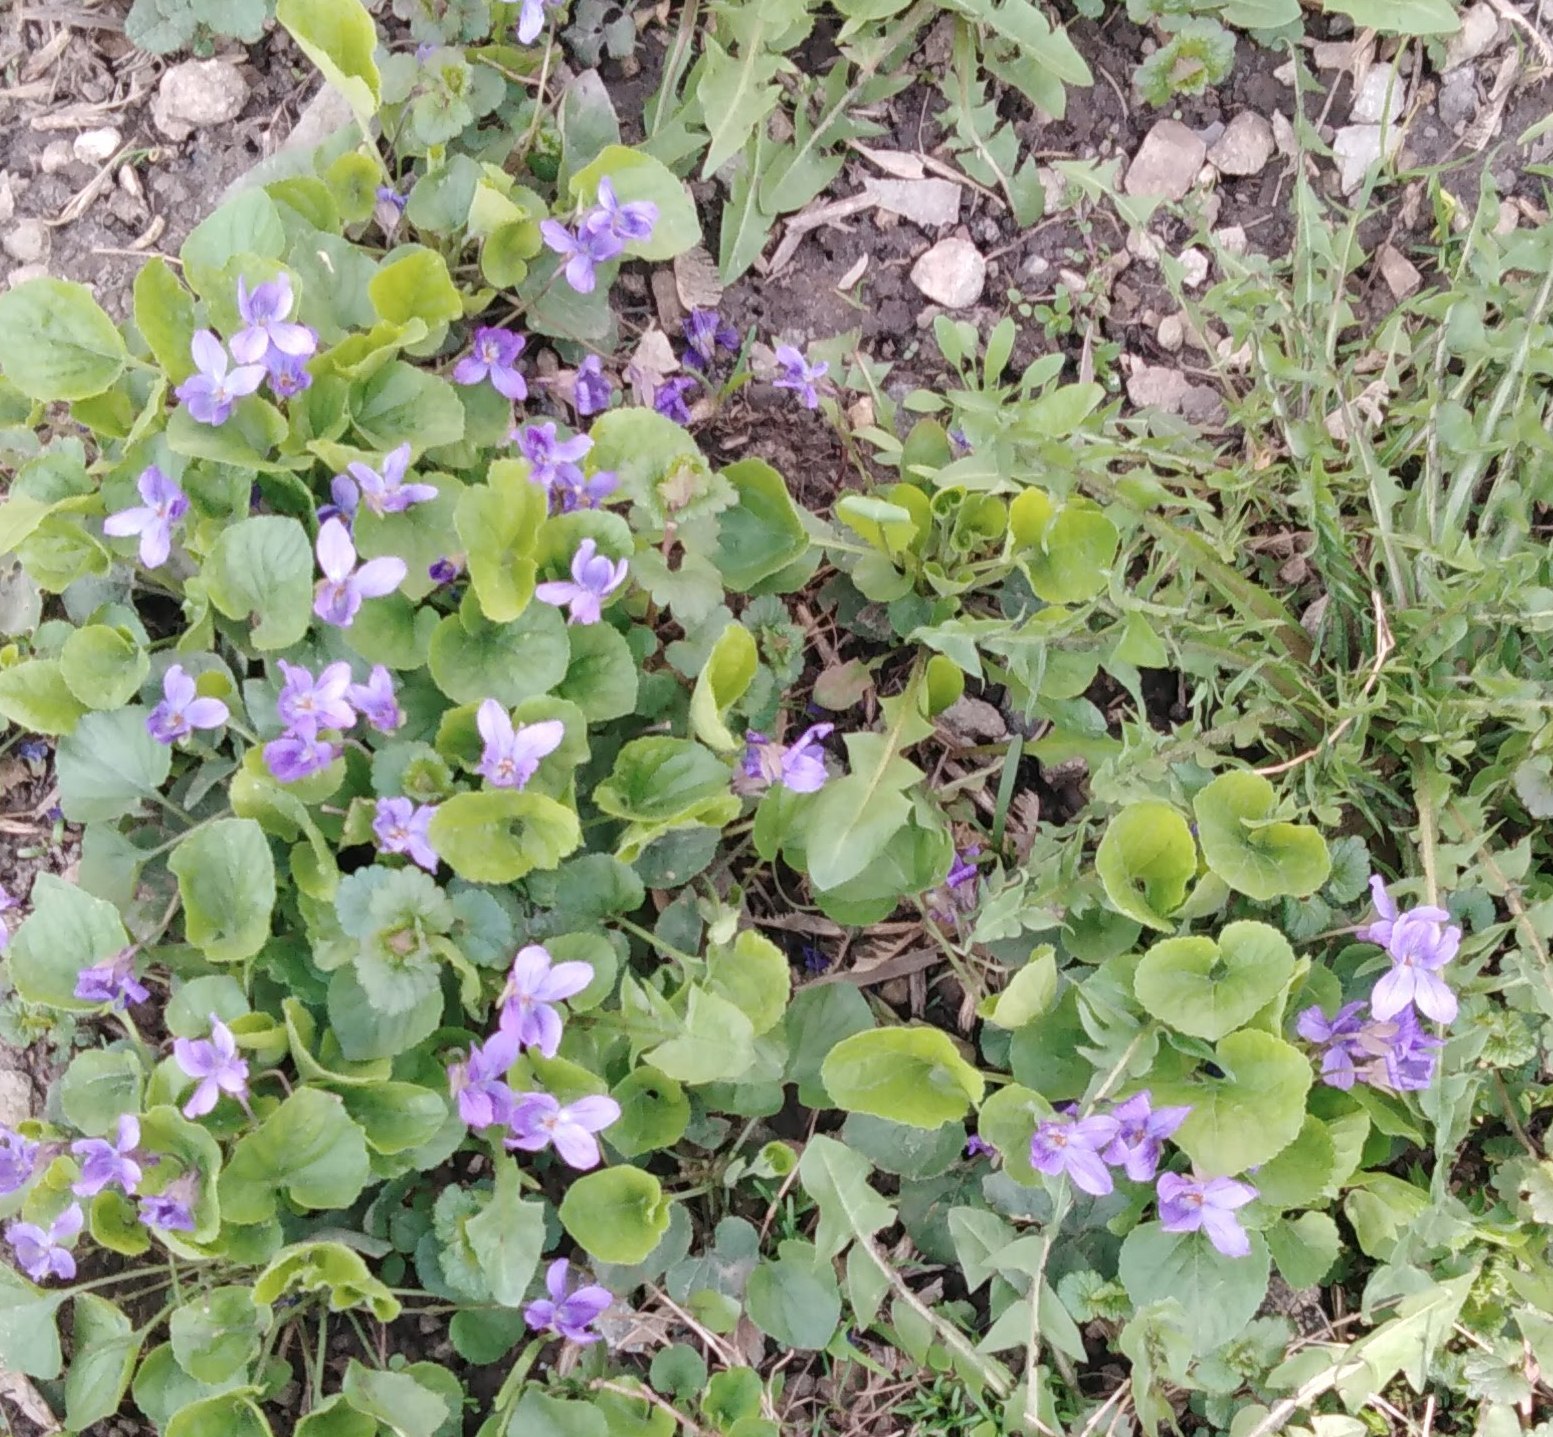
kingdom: Plantae
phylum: Tracheophyta
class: Magnoliopsida
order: Malpighiales
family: Violaceae
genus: Viola
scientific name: Viola odorata
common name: Sweet violet
